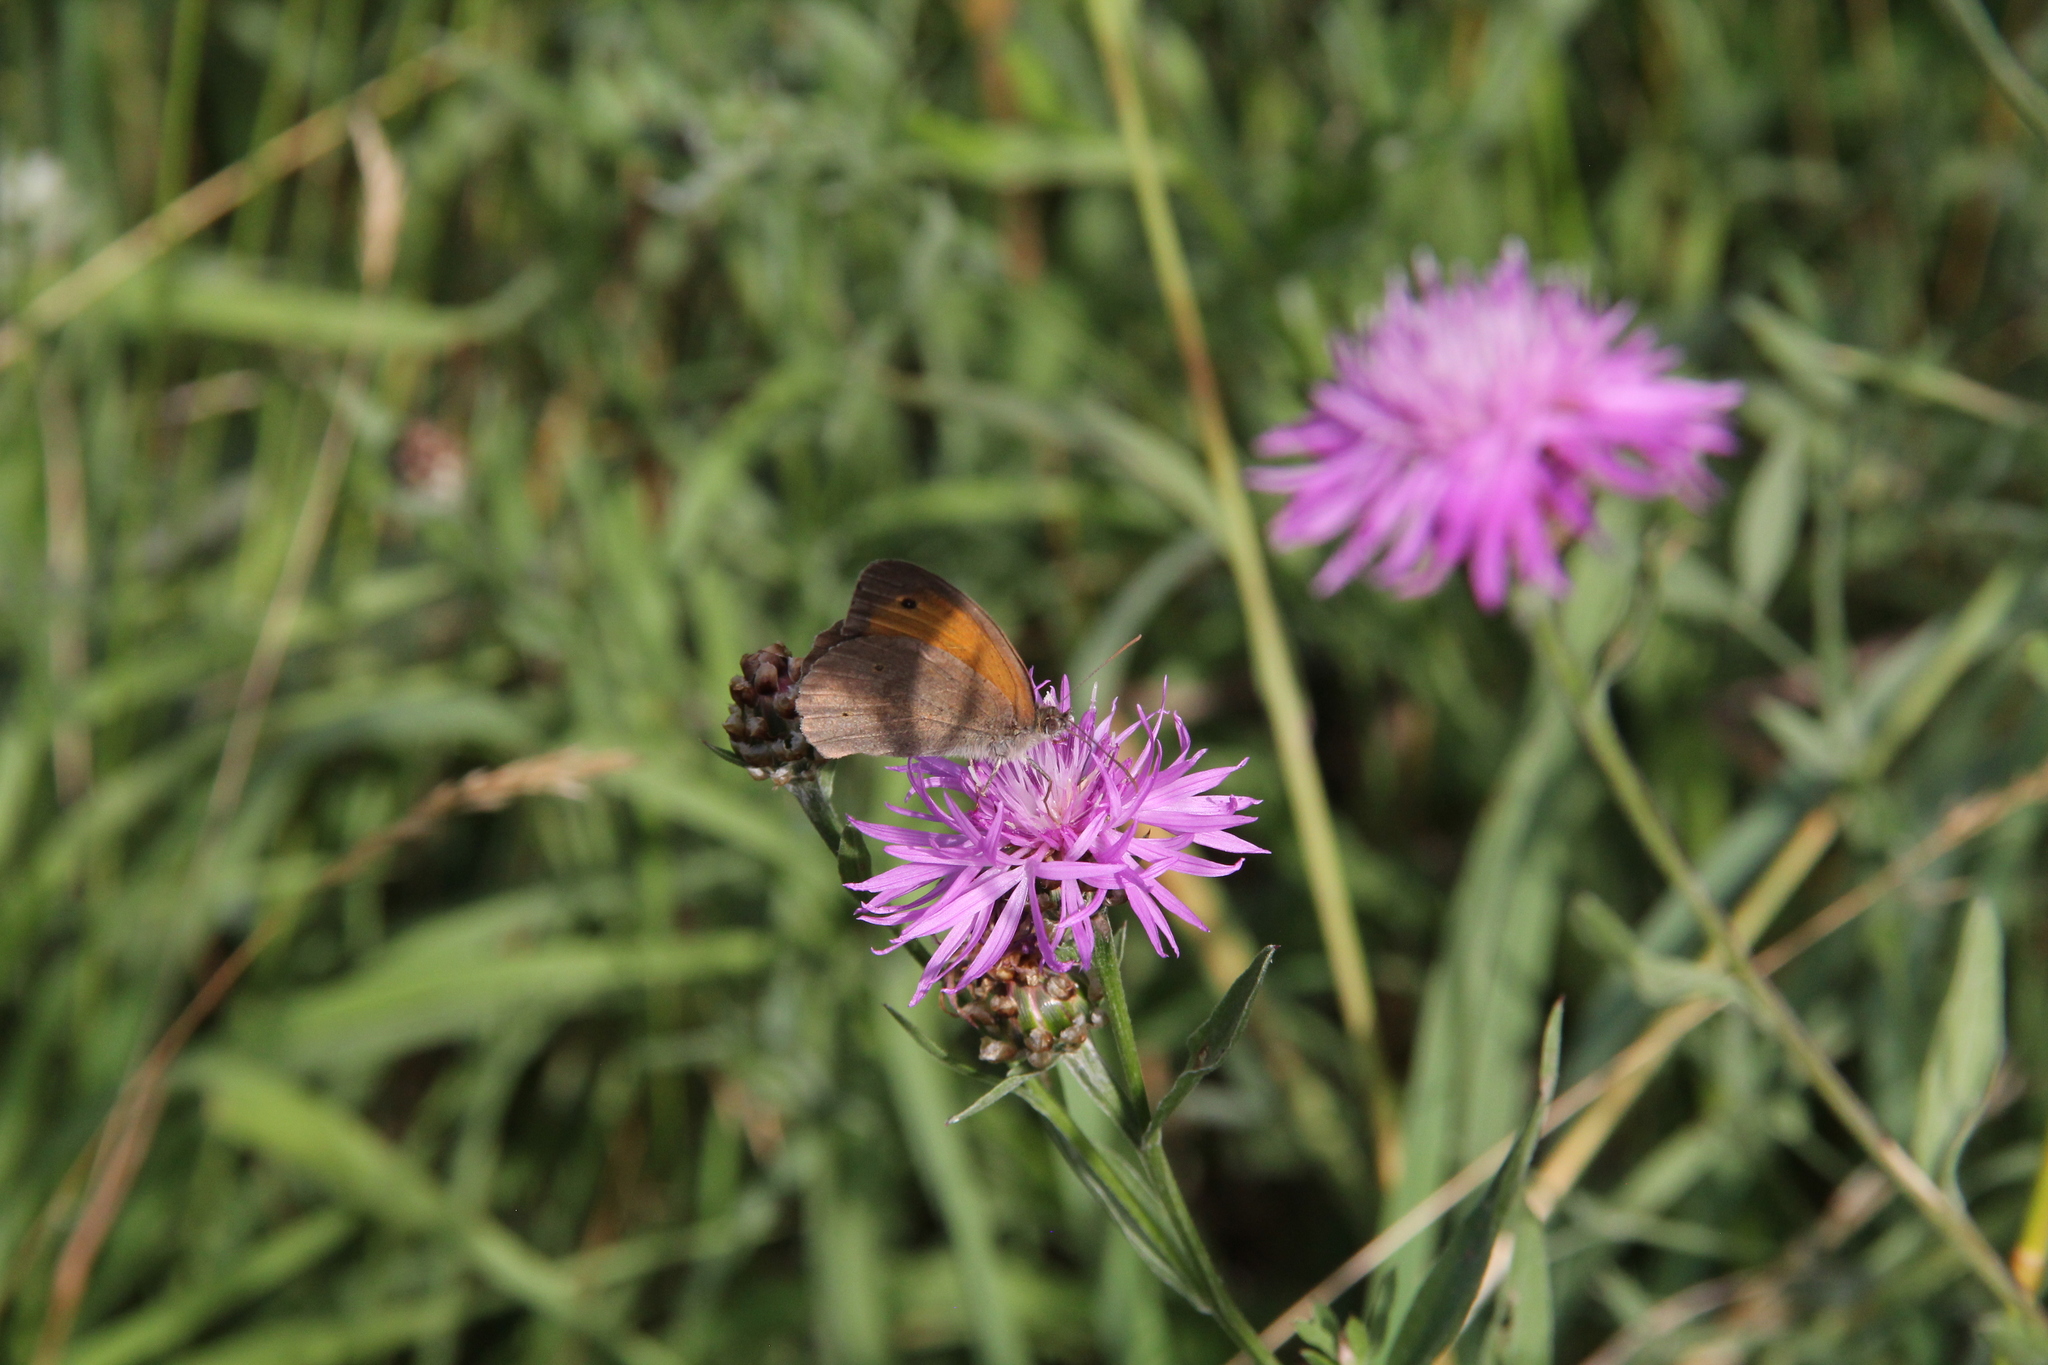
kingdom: Animalia
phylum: Arthropoda
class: Insecta
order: Lepidoptera
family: Nymphalidae
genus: Maniola
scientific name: Maniola jurtina
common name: Meadow brown
